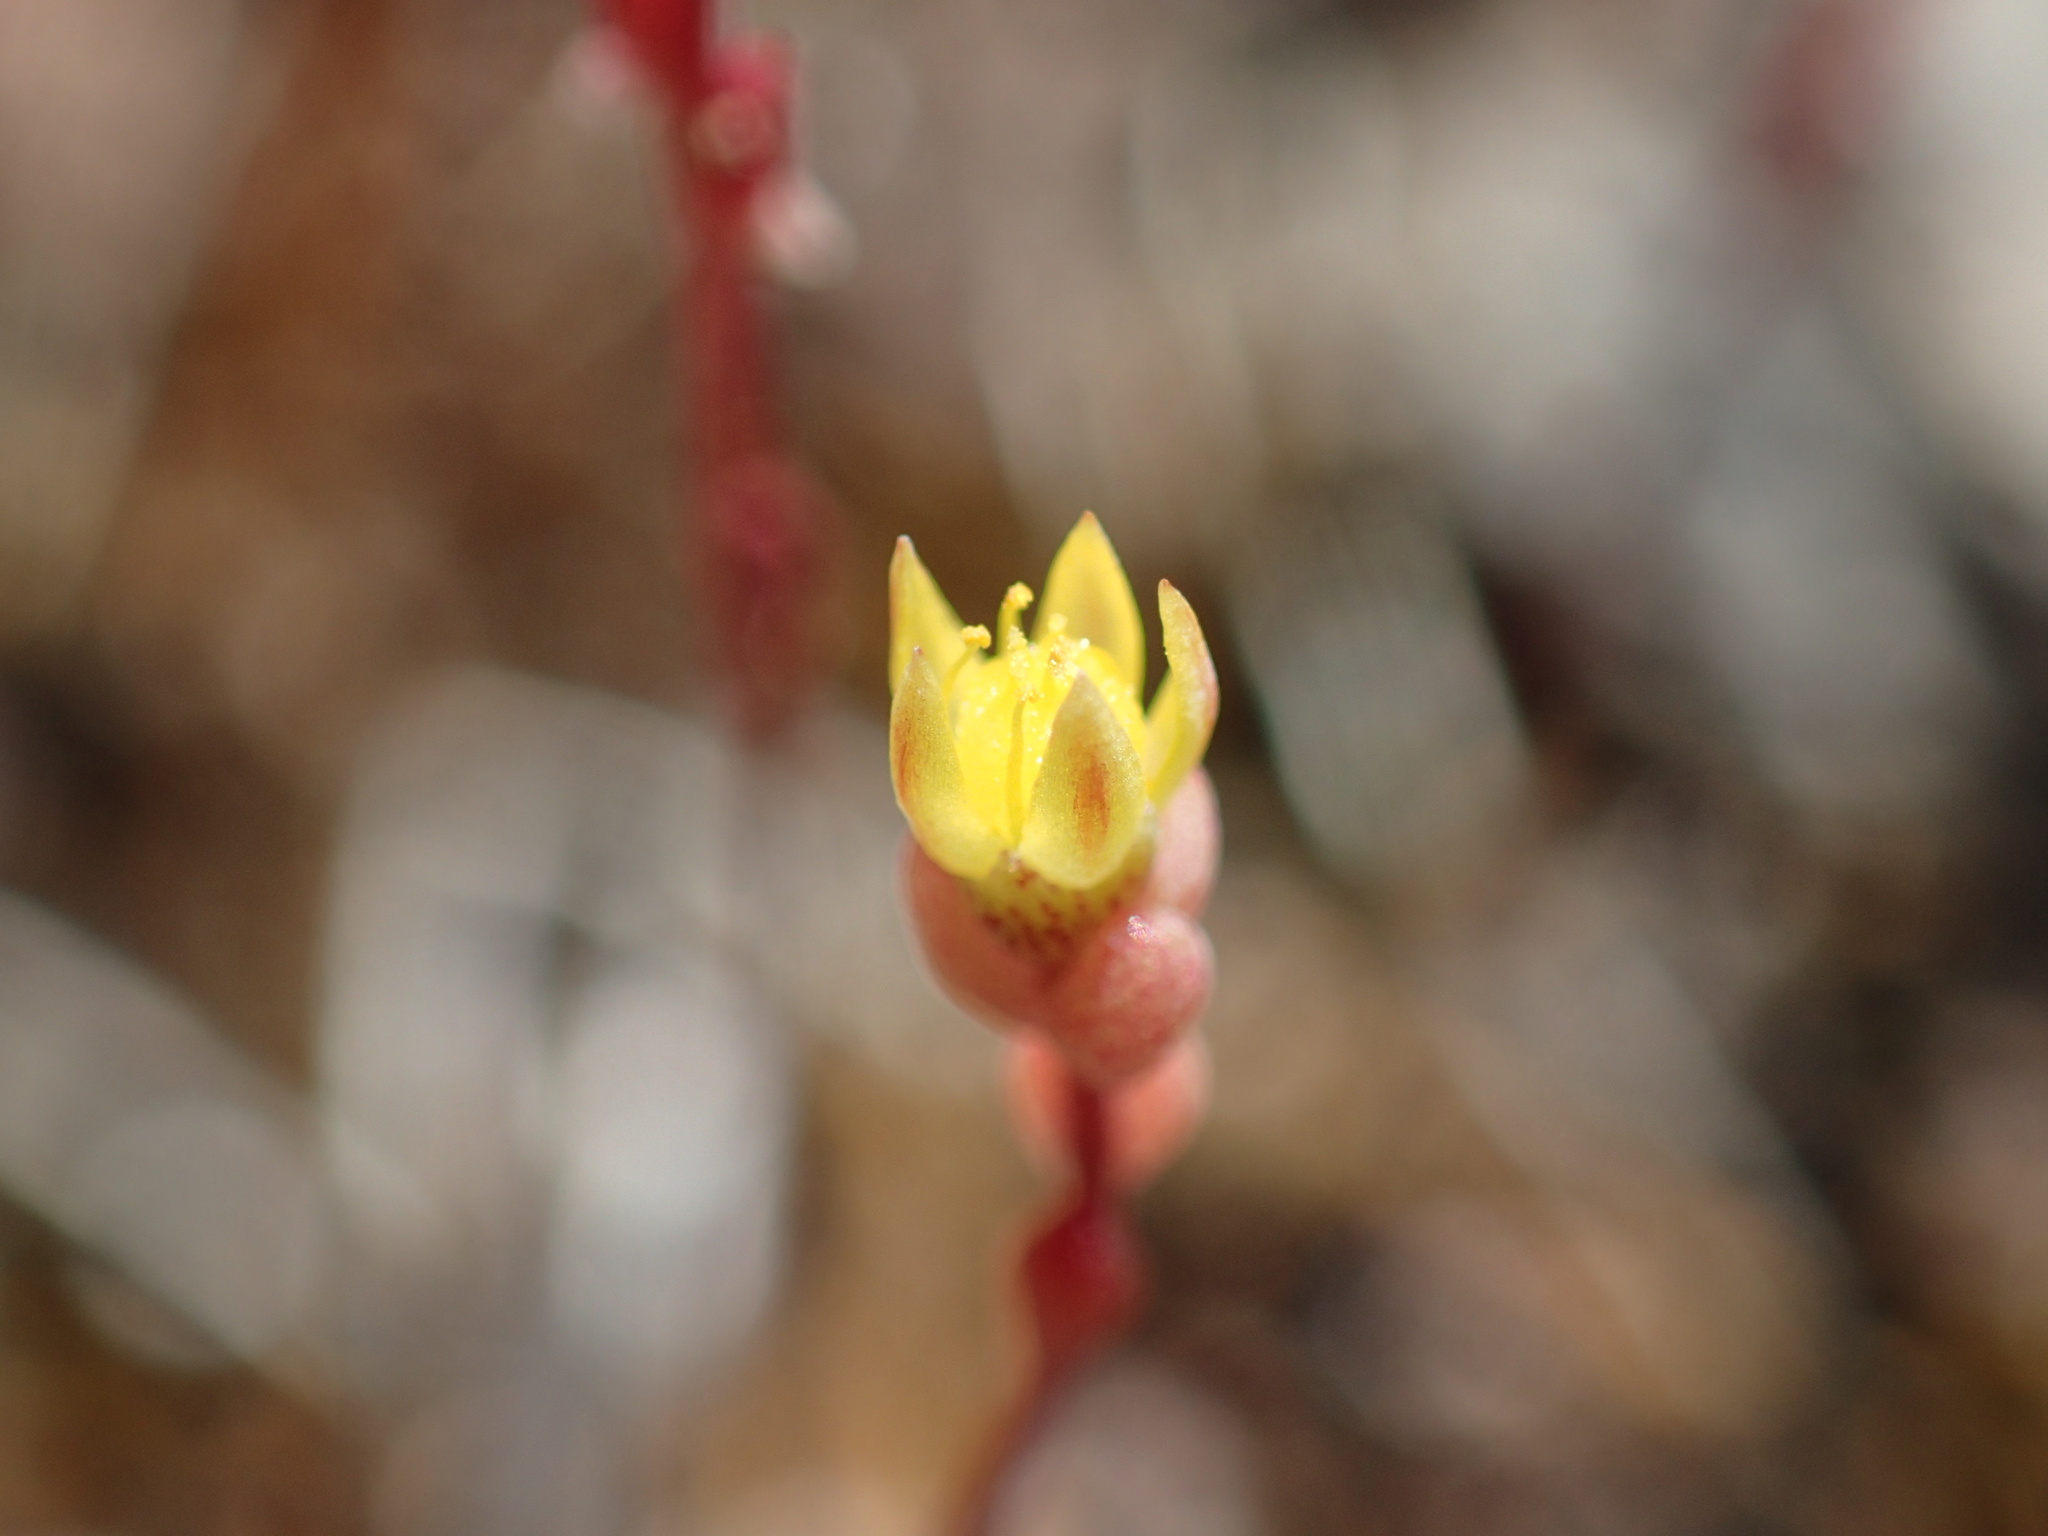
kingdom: Plantae
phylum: Tracheophyta
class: Magnoliopsida
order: Saxifragales
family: Crassulaceae
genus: Sedella
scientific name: Sedella pentandra
